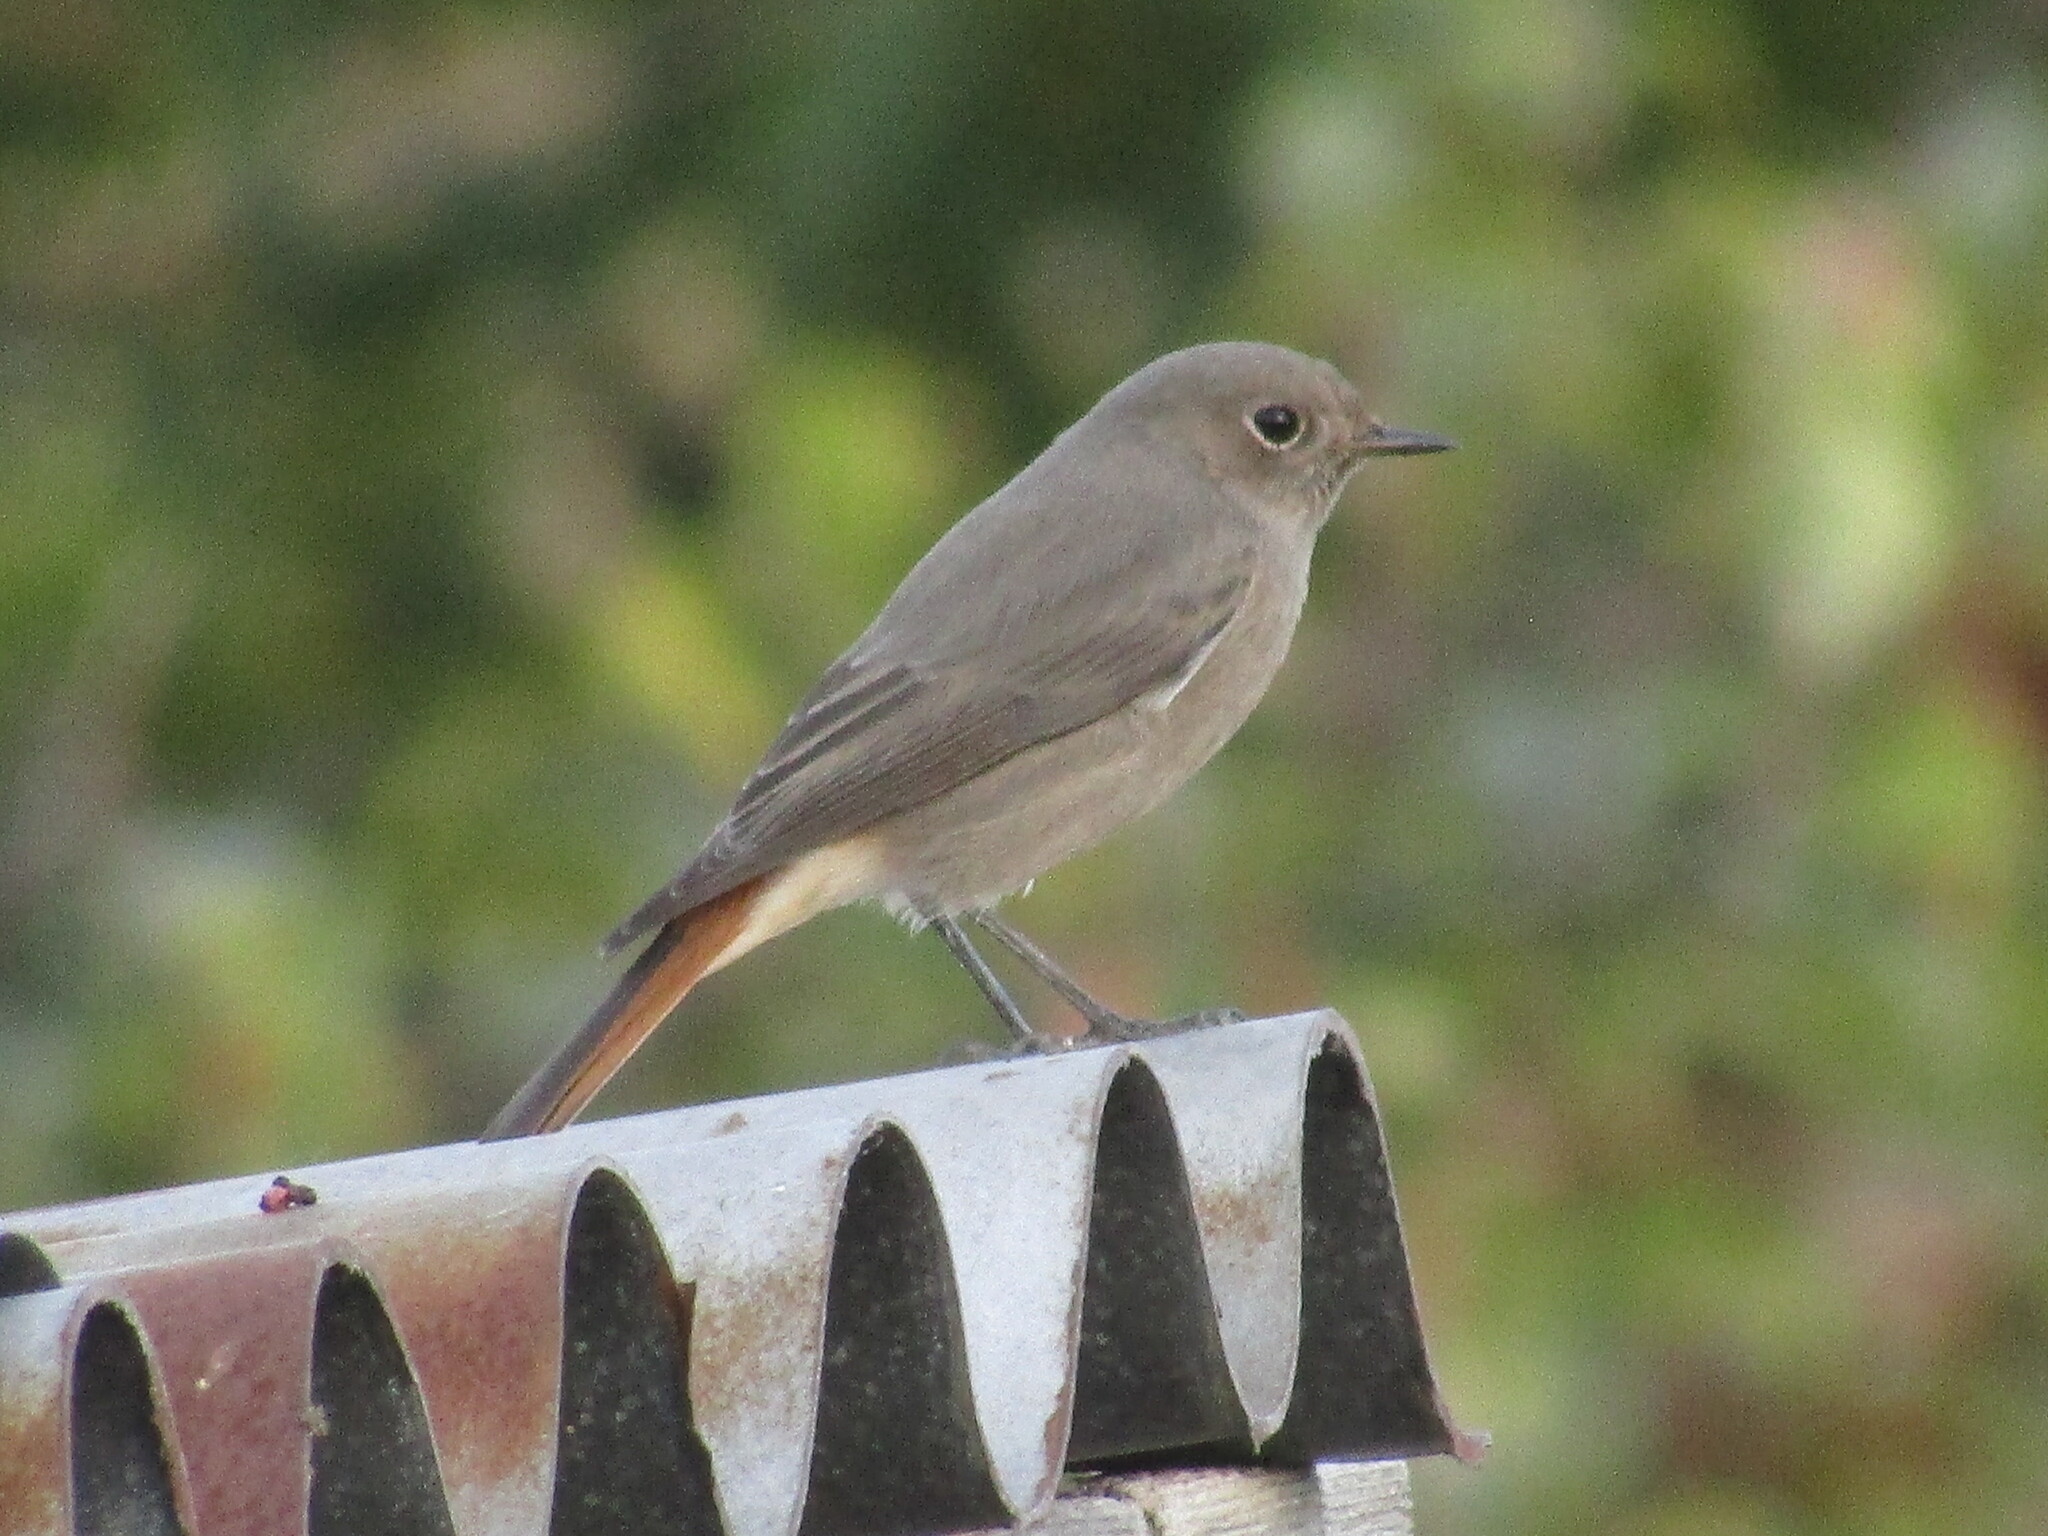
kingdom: Animalia
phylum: Chordata
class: Aves
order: Passeriformes
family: Muscicapidae
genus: Phoenicurus
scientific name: Phoenicurus ochruros
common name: Black redstart
